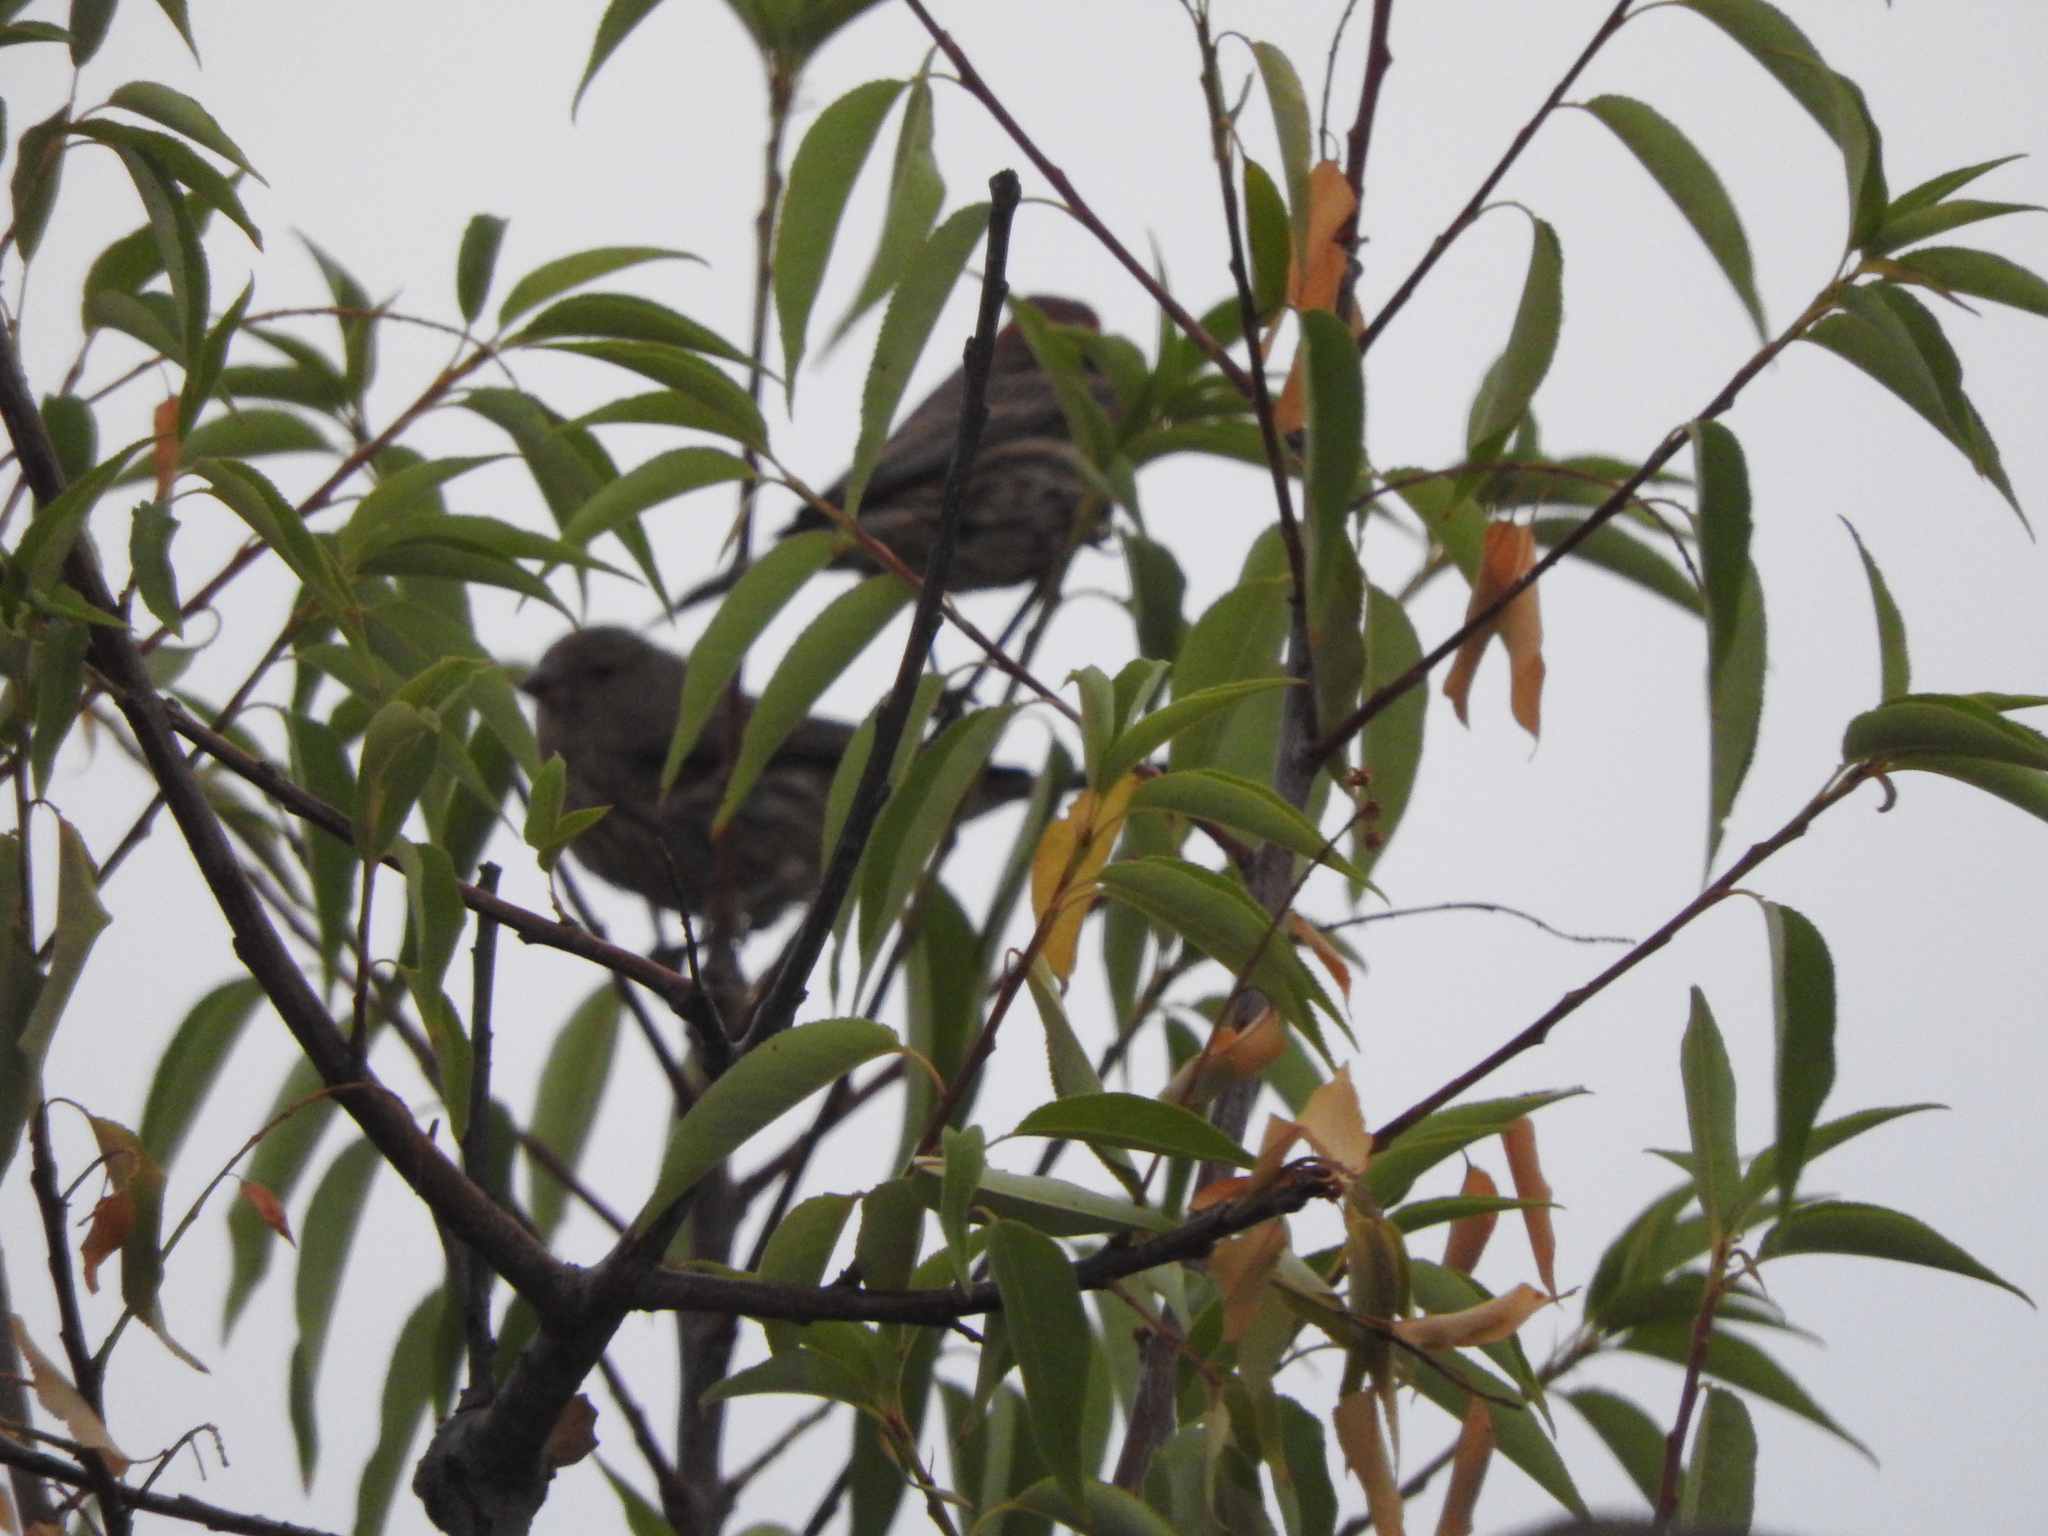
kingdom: Animalia
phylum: Chordata
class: Aves
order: Passeriformes
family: Fringillidae
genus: Haemorhous
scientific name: Haemorhous mexicanus
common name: House finch
